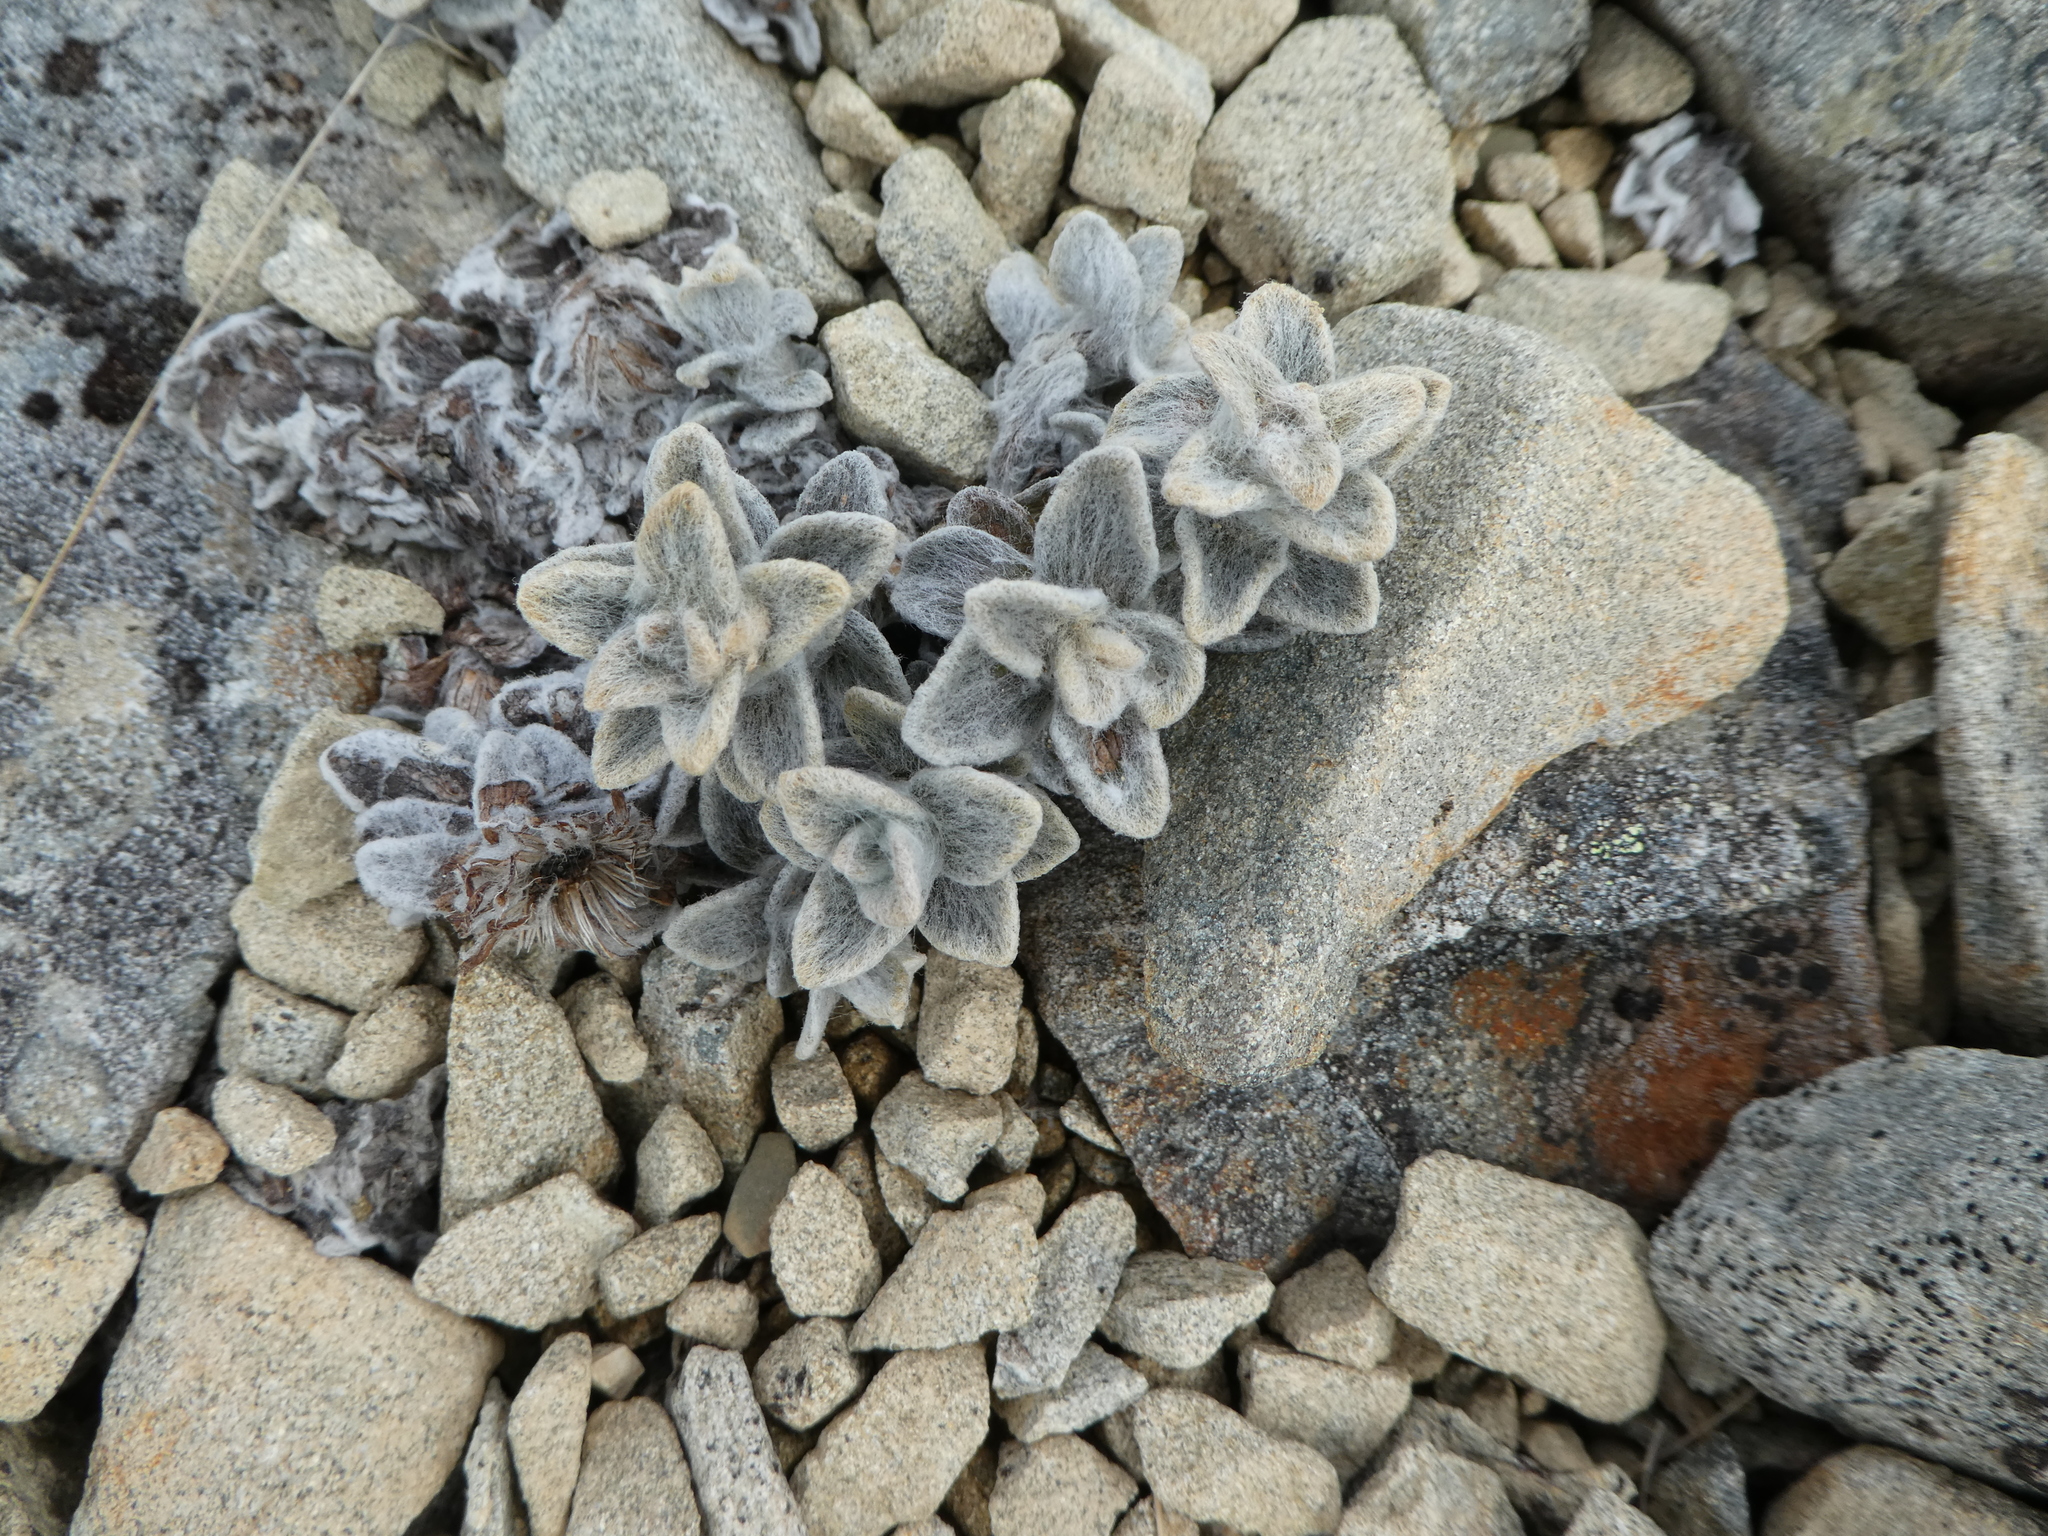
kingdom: Plantae
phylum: Tracheophyta
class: Magnoliopsida
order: Asterales
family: Asteraceae
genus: Haastia
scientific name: Haastia sinclairii
